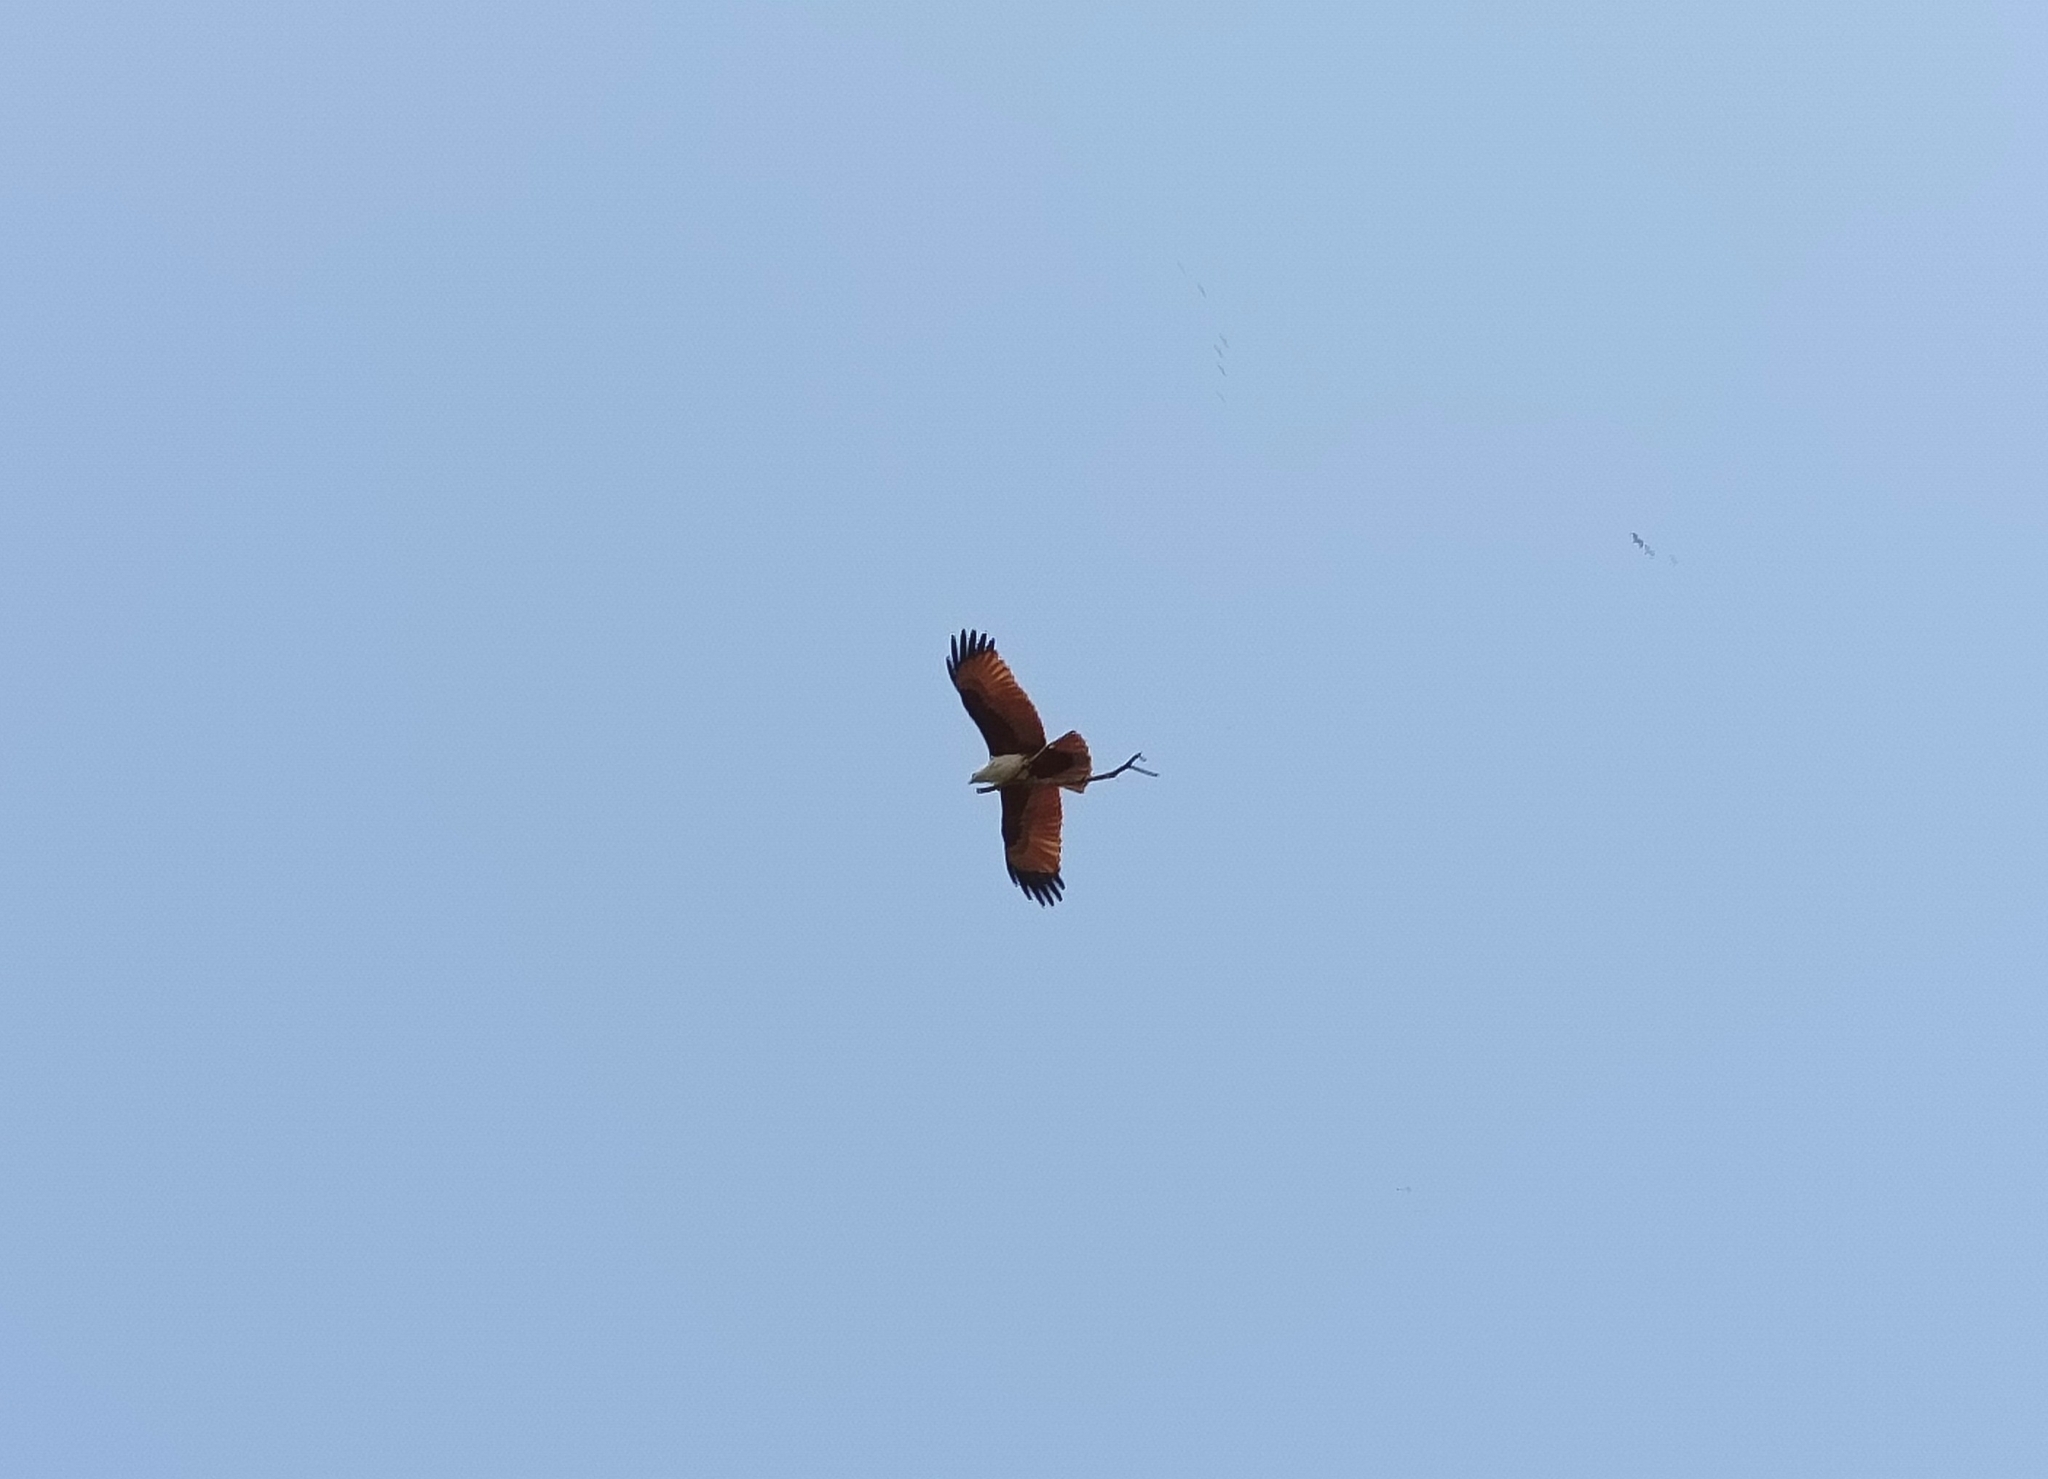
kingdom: Animalia
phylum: Chordata
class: Aves
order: Accipitriformes
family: Accipitridae
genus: Haliastur
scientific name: Haliastur indus
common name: Brahminy kite
